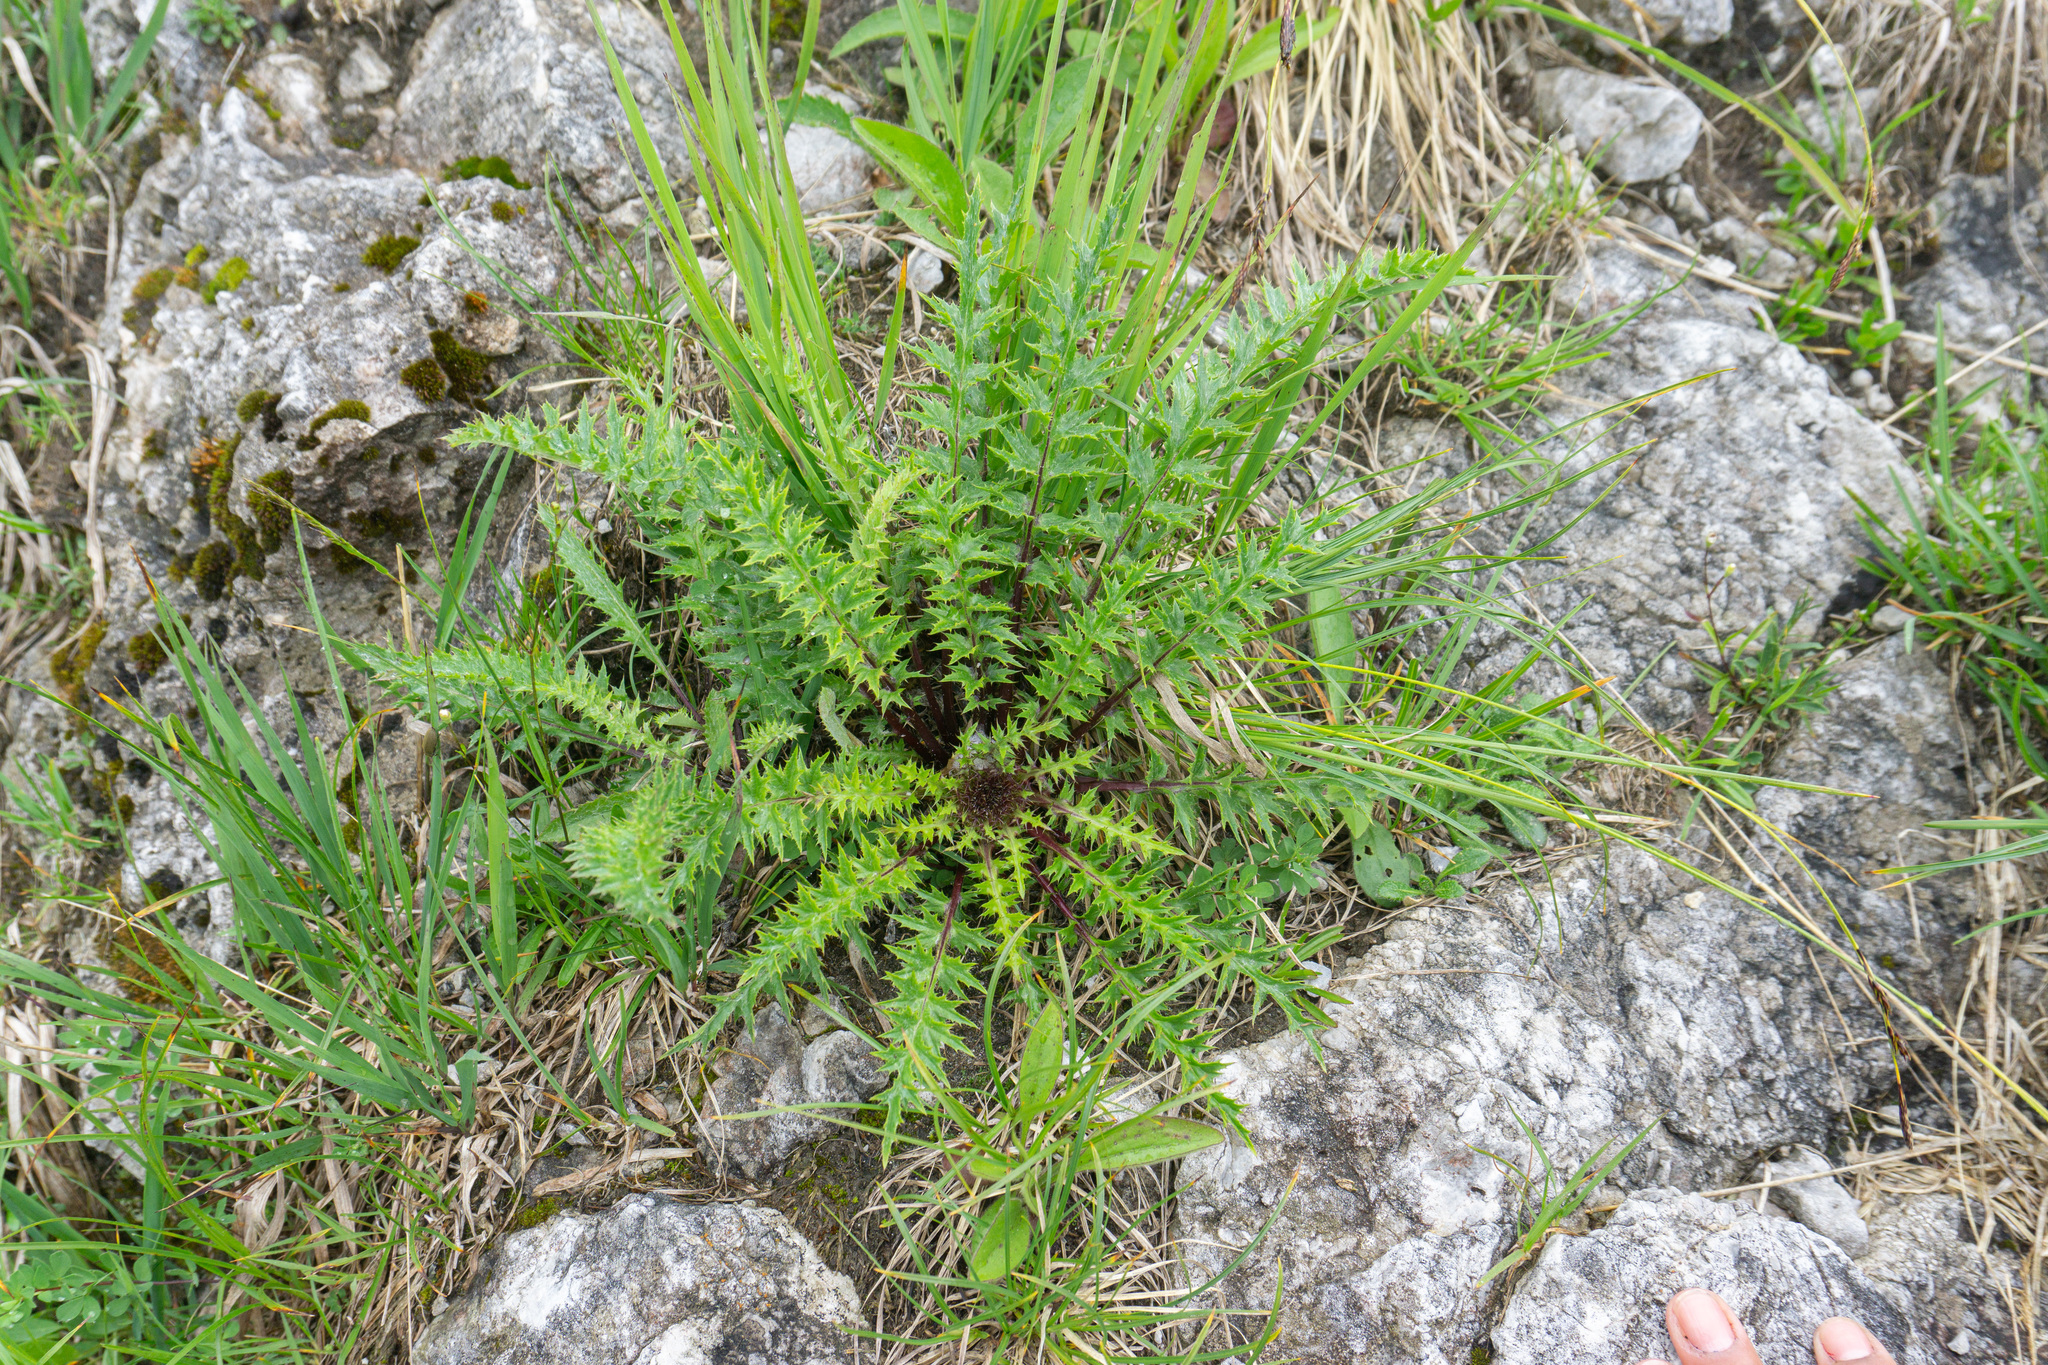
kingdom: Plantae
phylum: Tracheophyta
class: Magnoliopsida
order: Asterales
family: Asteraceae
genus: Carlina
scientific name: Carlina acaulis
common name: Stemless carline thistle
